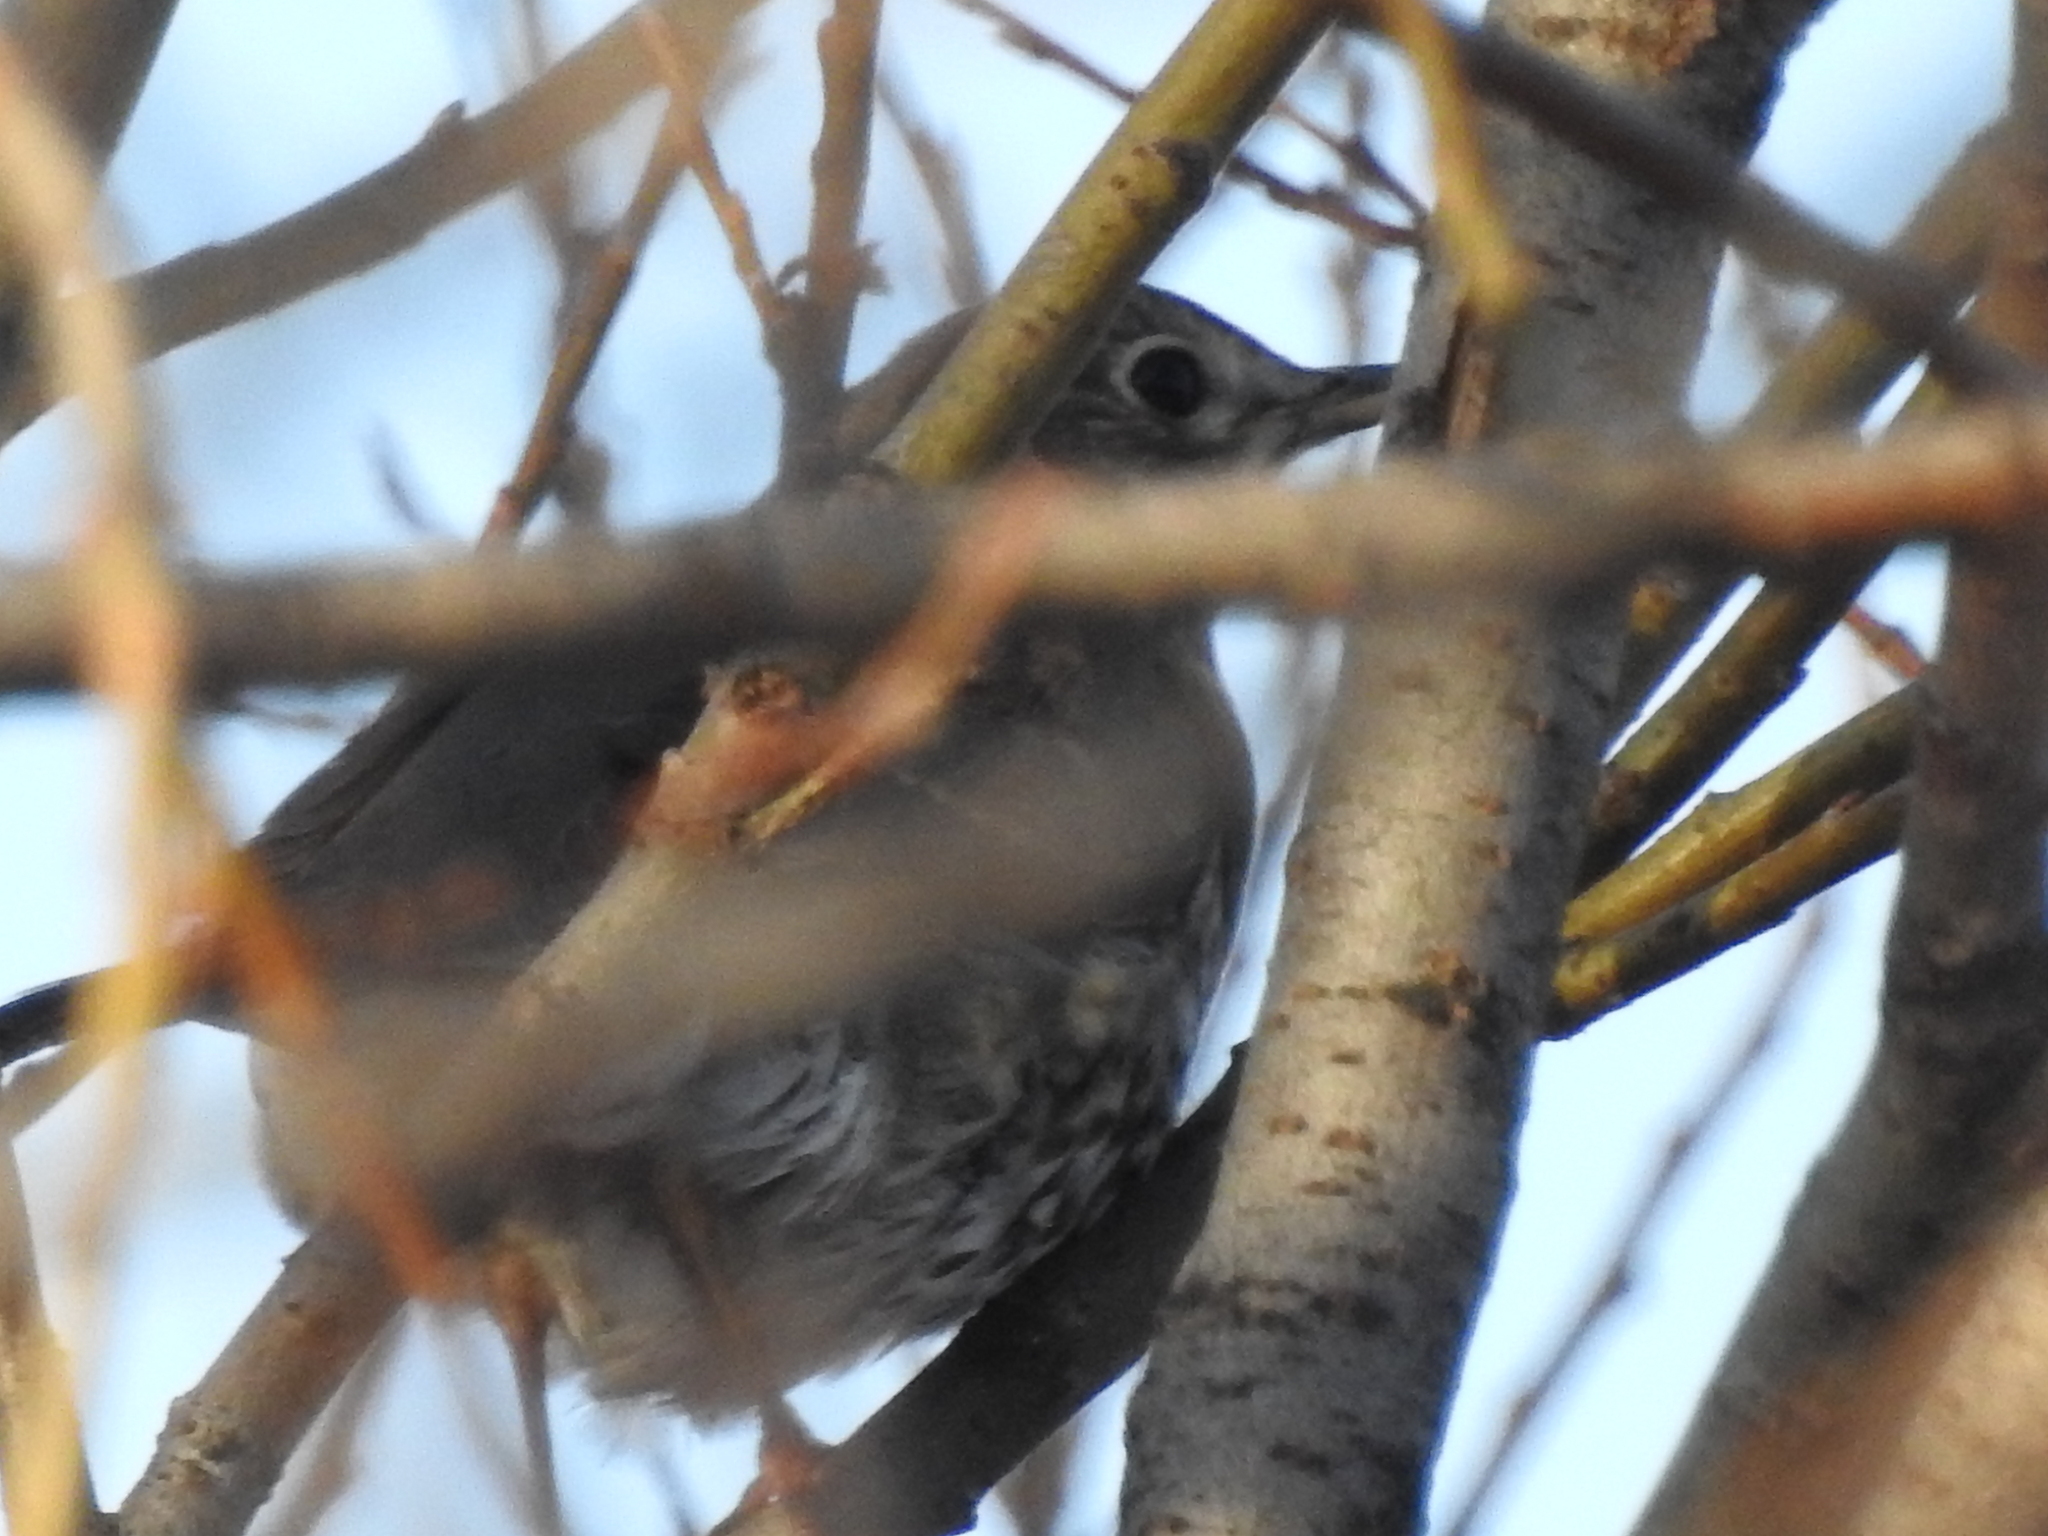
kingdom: Animalia
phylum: Chordata
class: Aves
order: Passeriformes
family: Turdidae
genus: Turdus
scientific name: Turdus philomelos
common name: Song thrush
